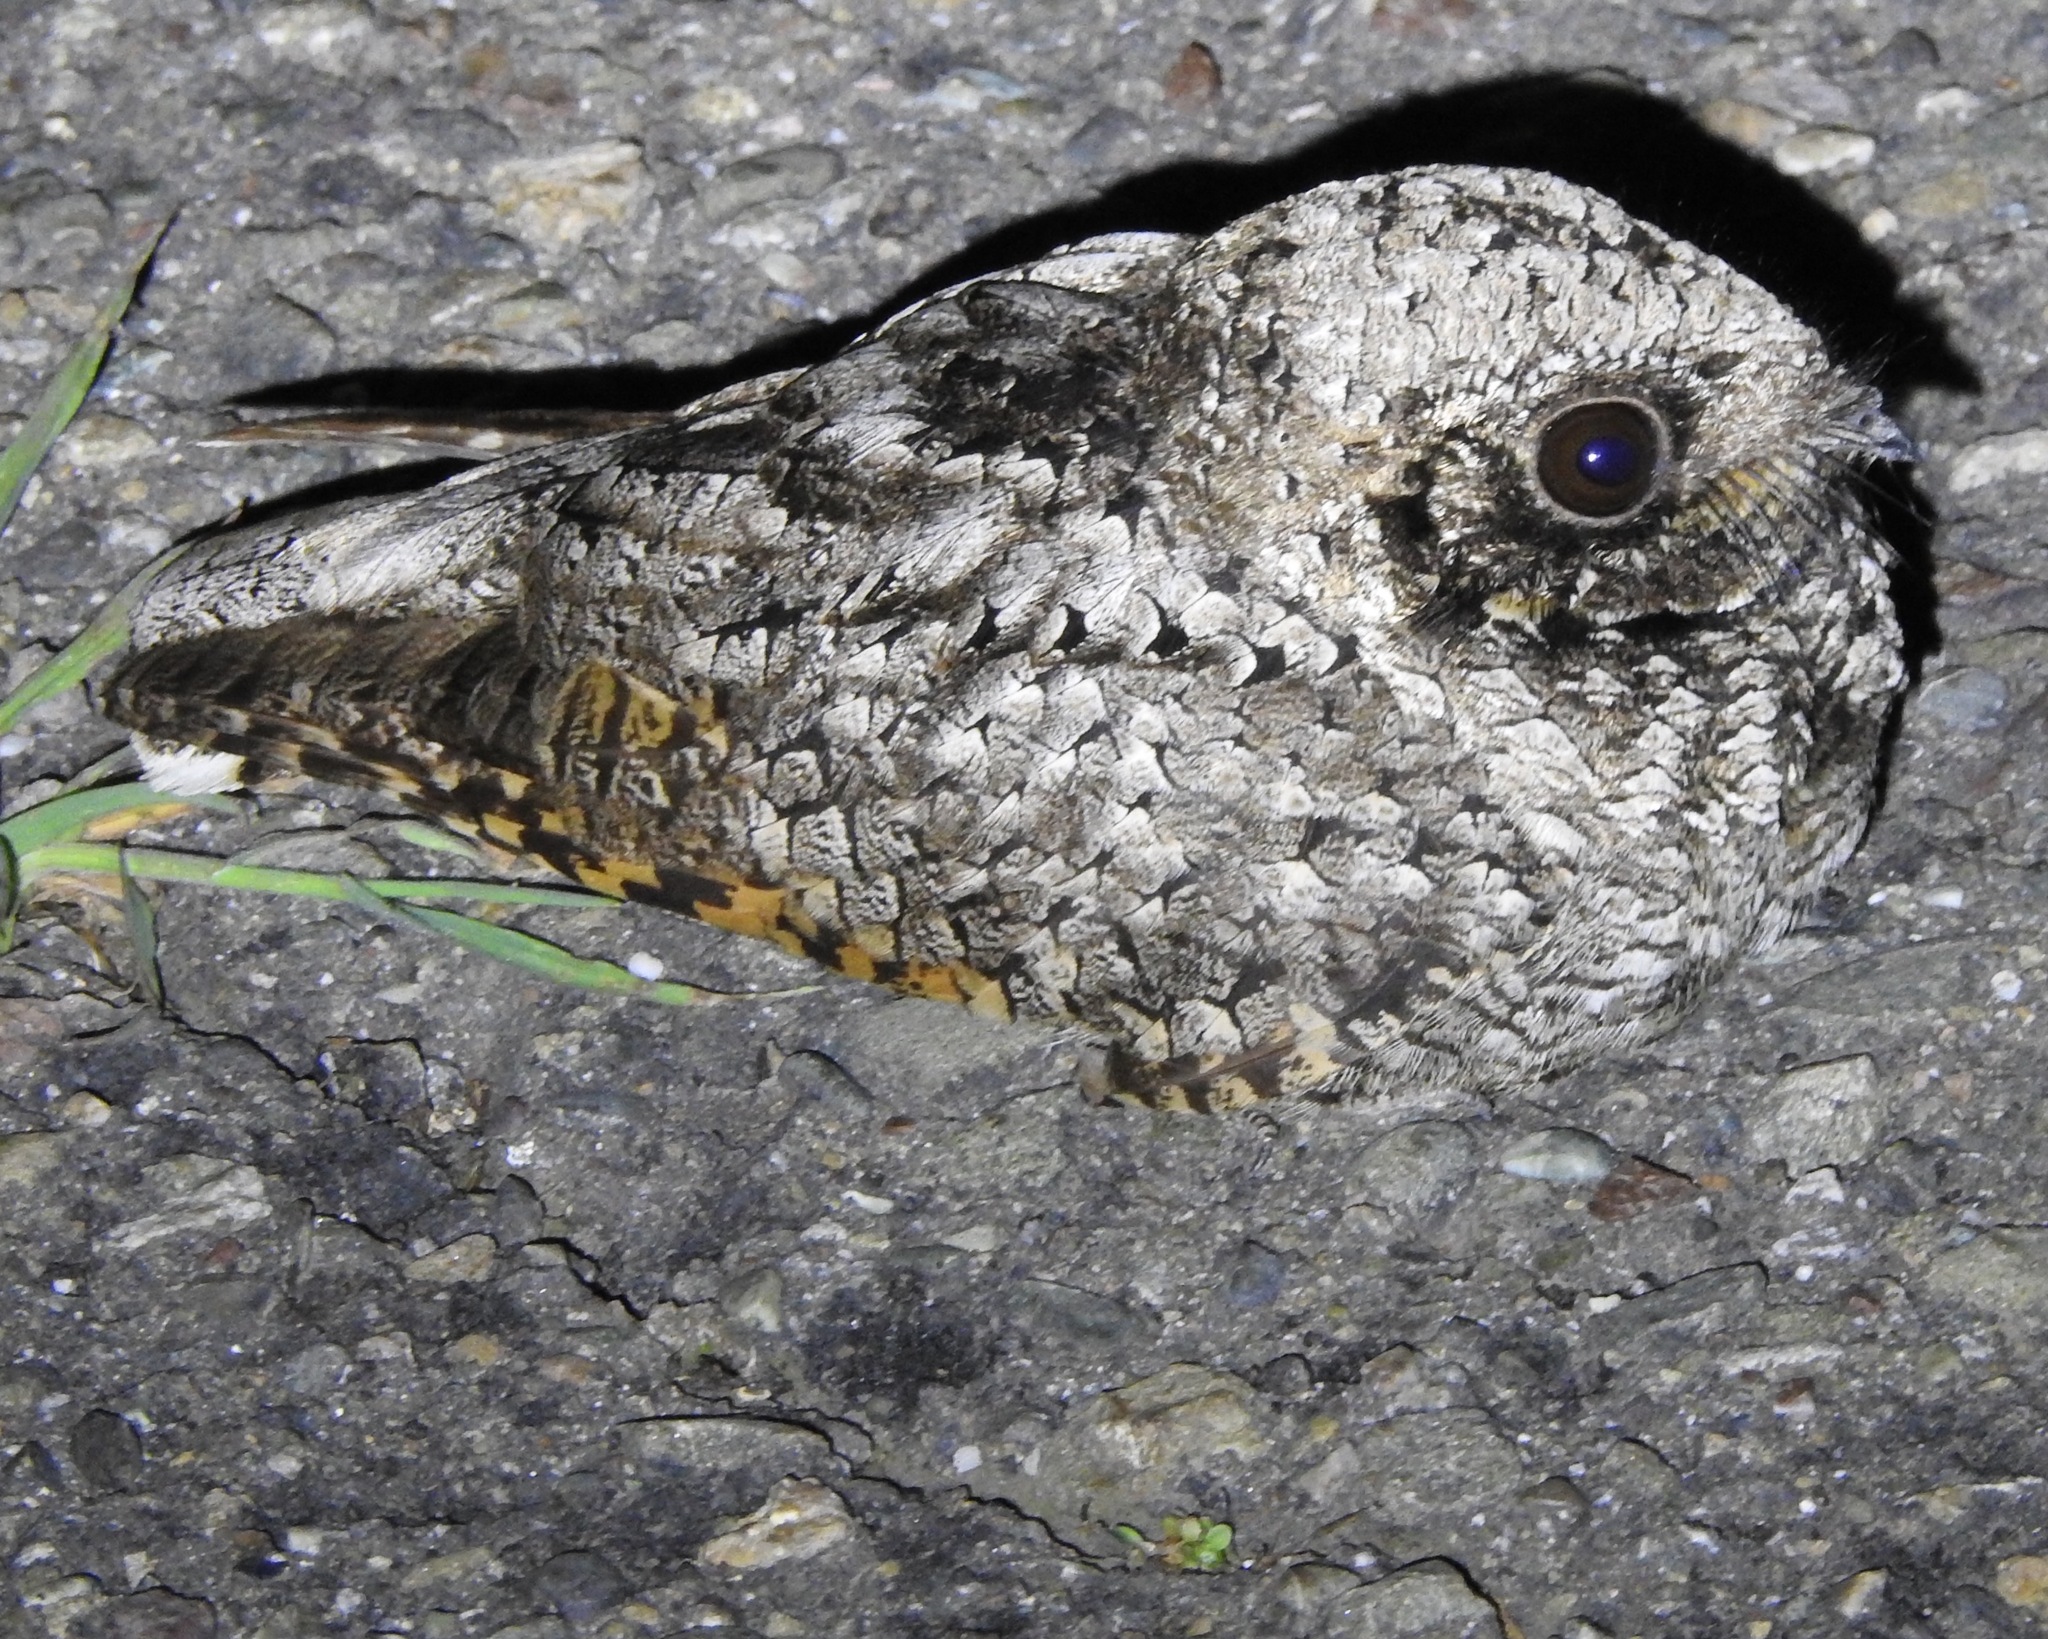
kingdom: Animalia
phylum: Chordata
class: Aves
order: Caprimulgiformes
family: Caprimulgidae
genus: Phalaenoptilus
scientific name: Phalaenoptilus nuttallii
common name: Common poorwill
